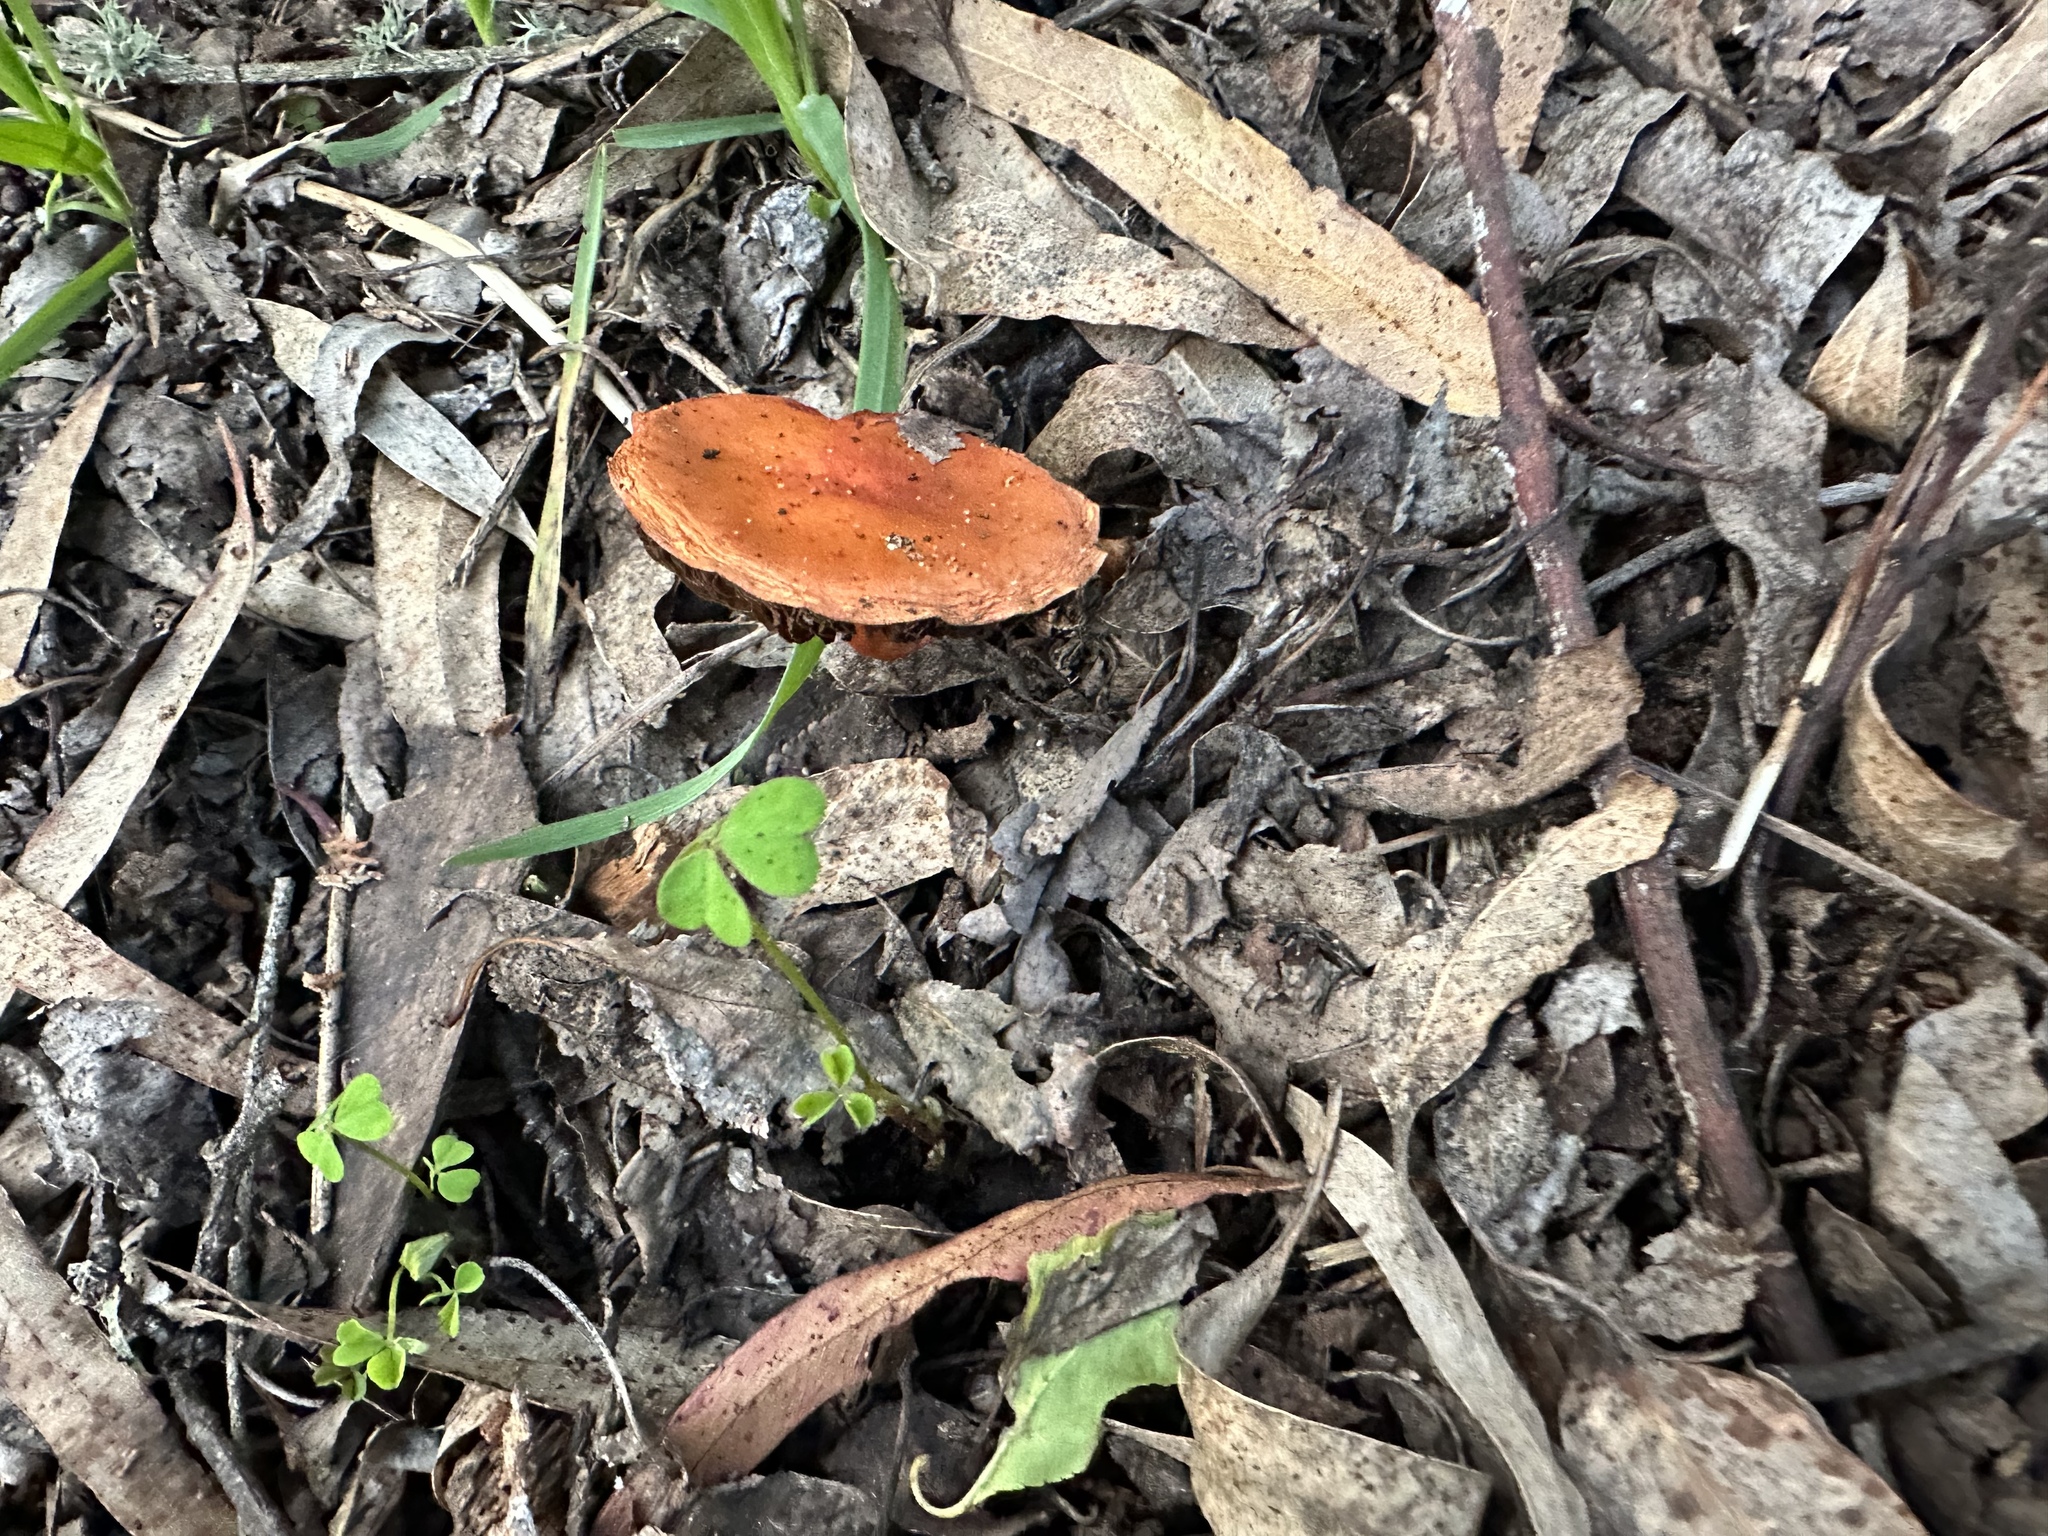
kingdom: Fungi
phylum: Basidiomycota
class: Agaricomycetes
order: Agaricales
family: Strophariaceae
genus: Leratiomyces
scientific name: Leratiomyces ceres
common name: Redlead roundhead
